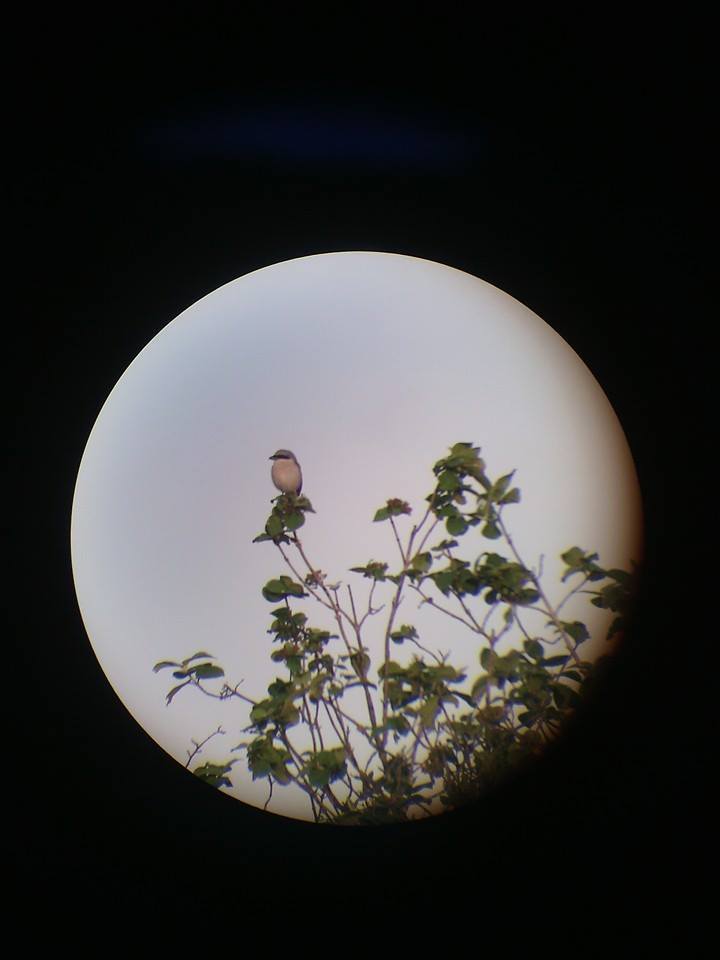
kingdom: Animalia
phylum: Chordata
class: Aves
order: Passeriformes
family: Laniidae
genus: Lanius
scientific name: Lanius collurio
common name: Red-backed shrike
